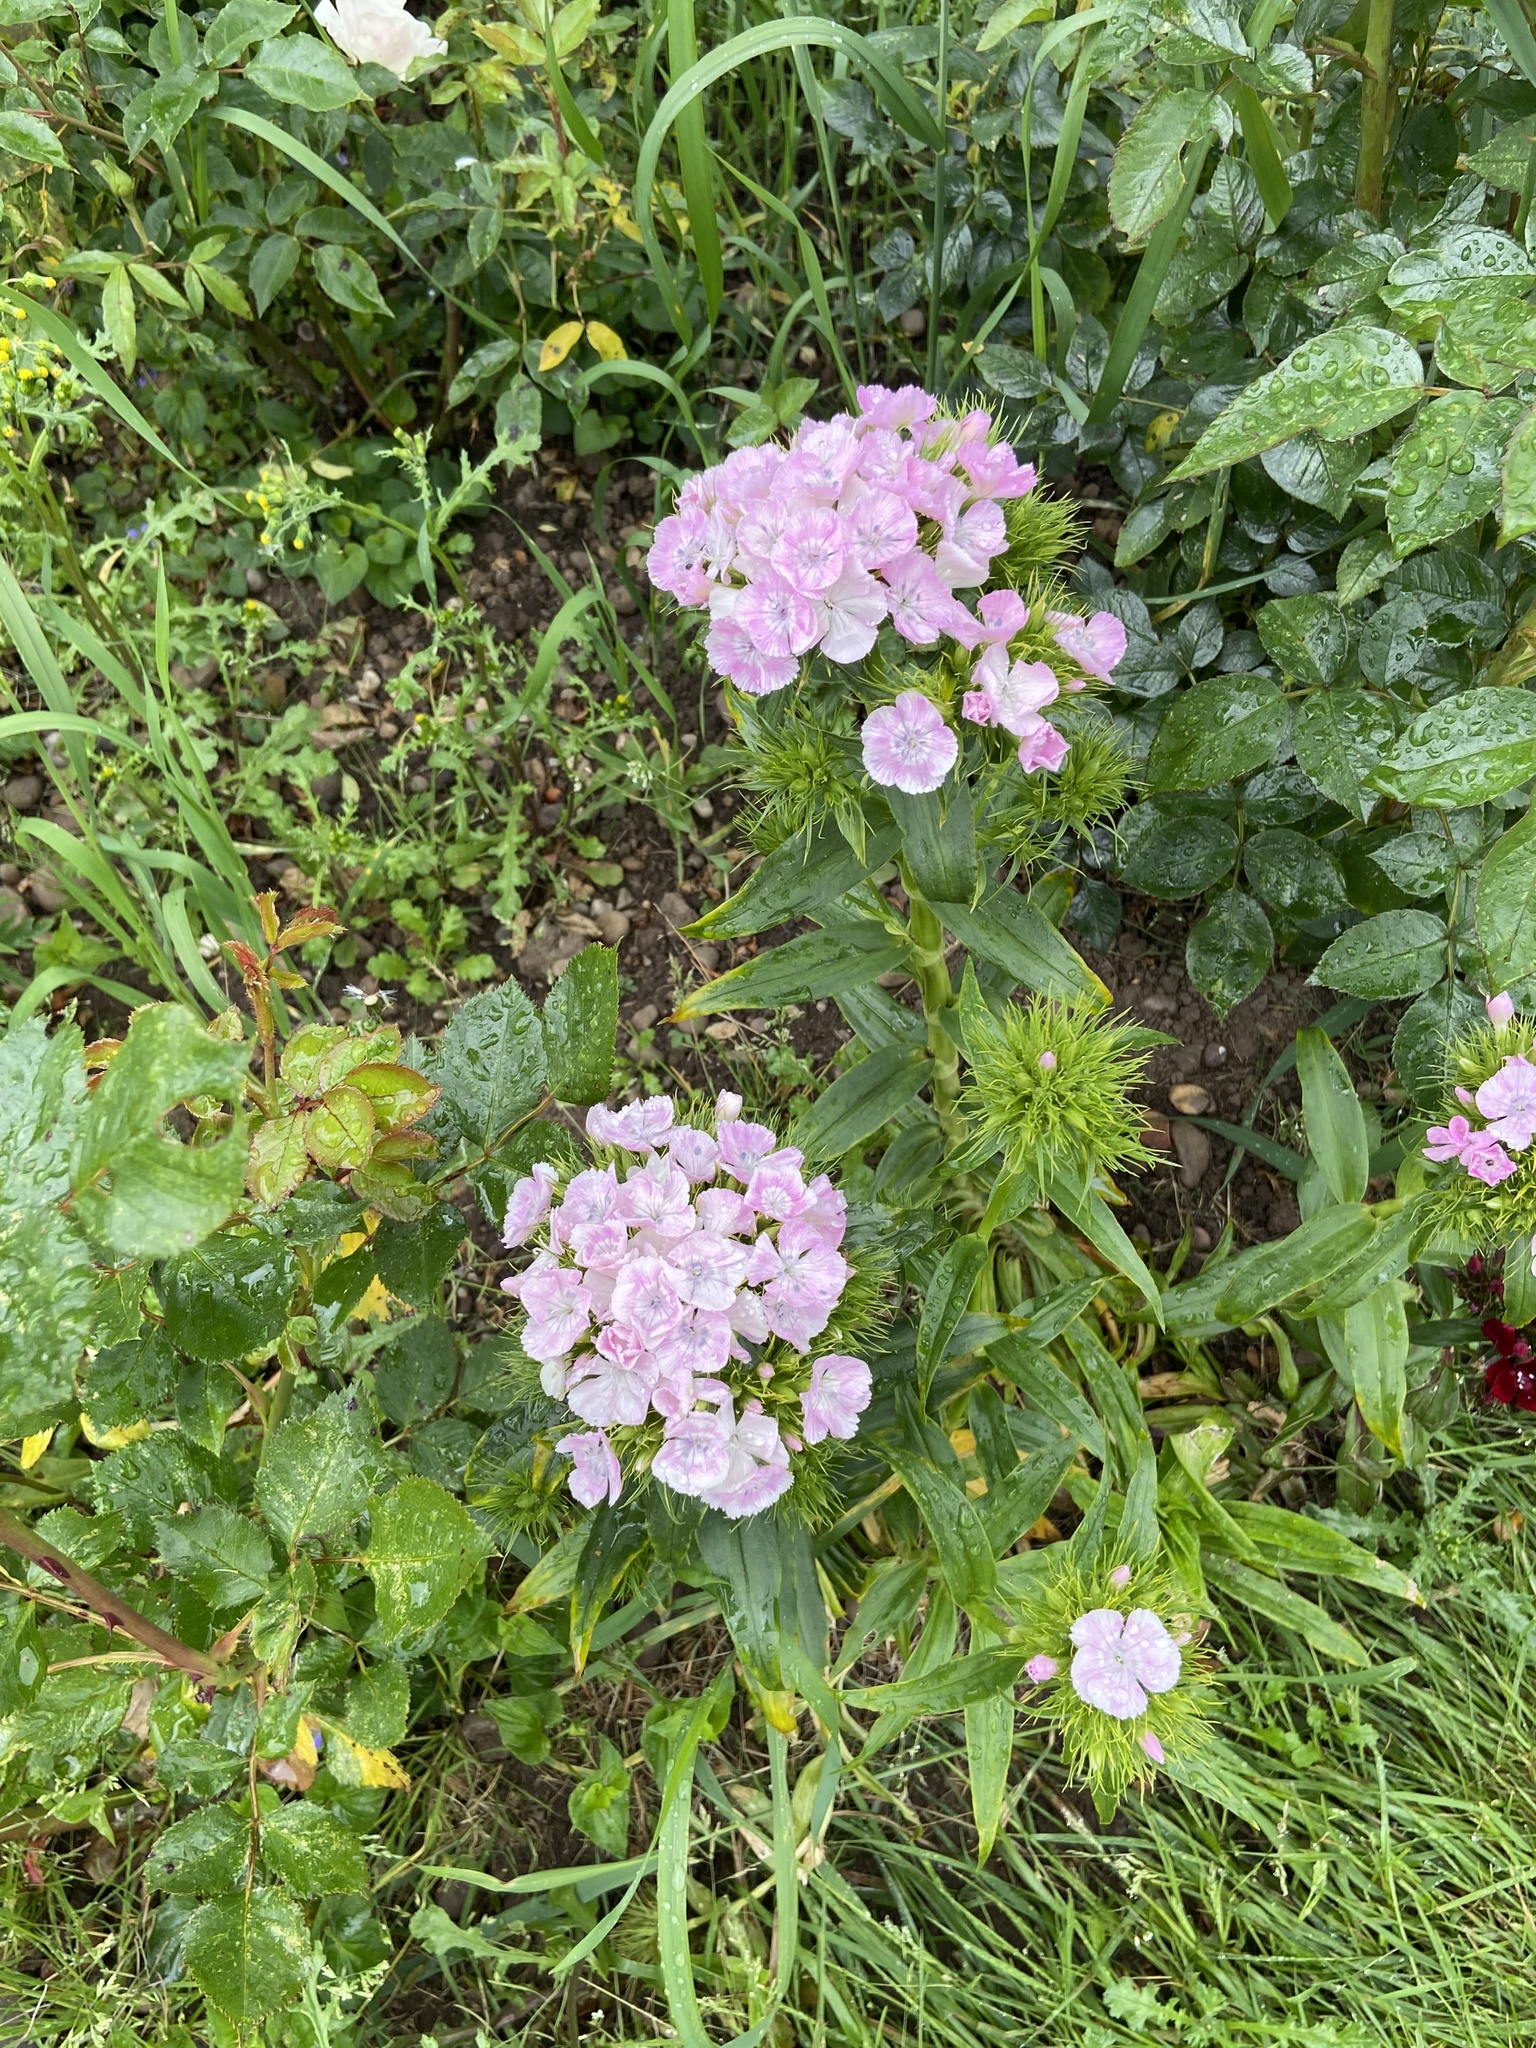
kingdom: Plantae
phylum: Tracheophyta
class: Magnoliopsida
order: Caryophyllales
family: Caryophyllaceae
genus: Dianthus
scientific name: Dianthus barbatus
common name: Sweet-william
